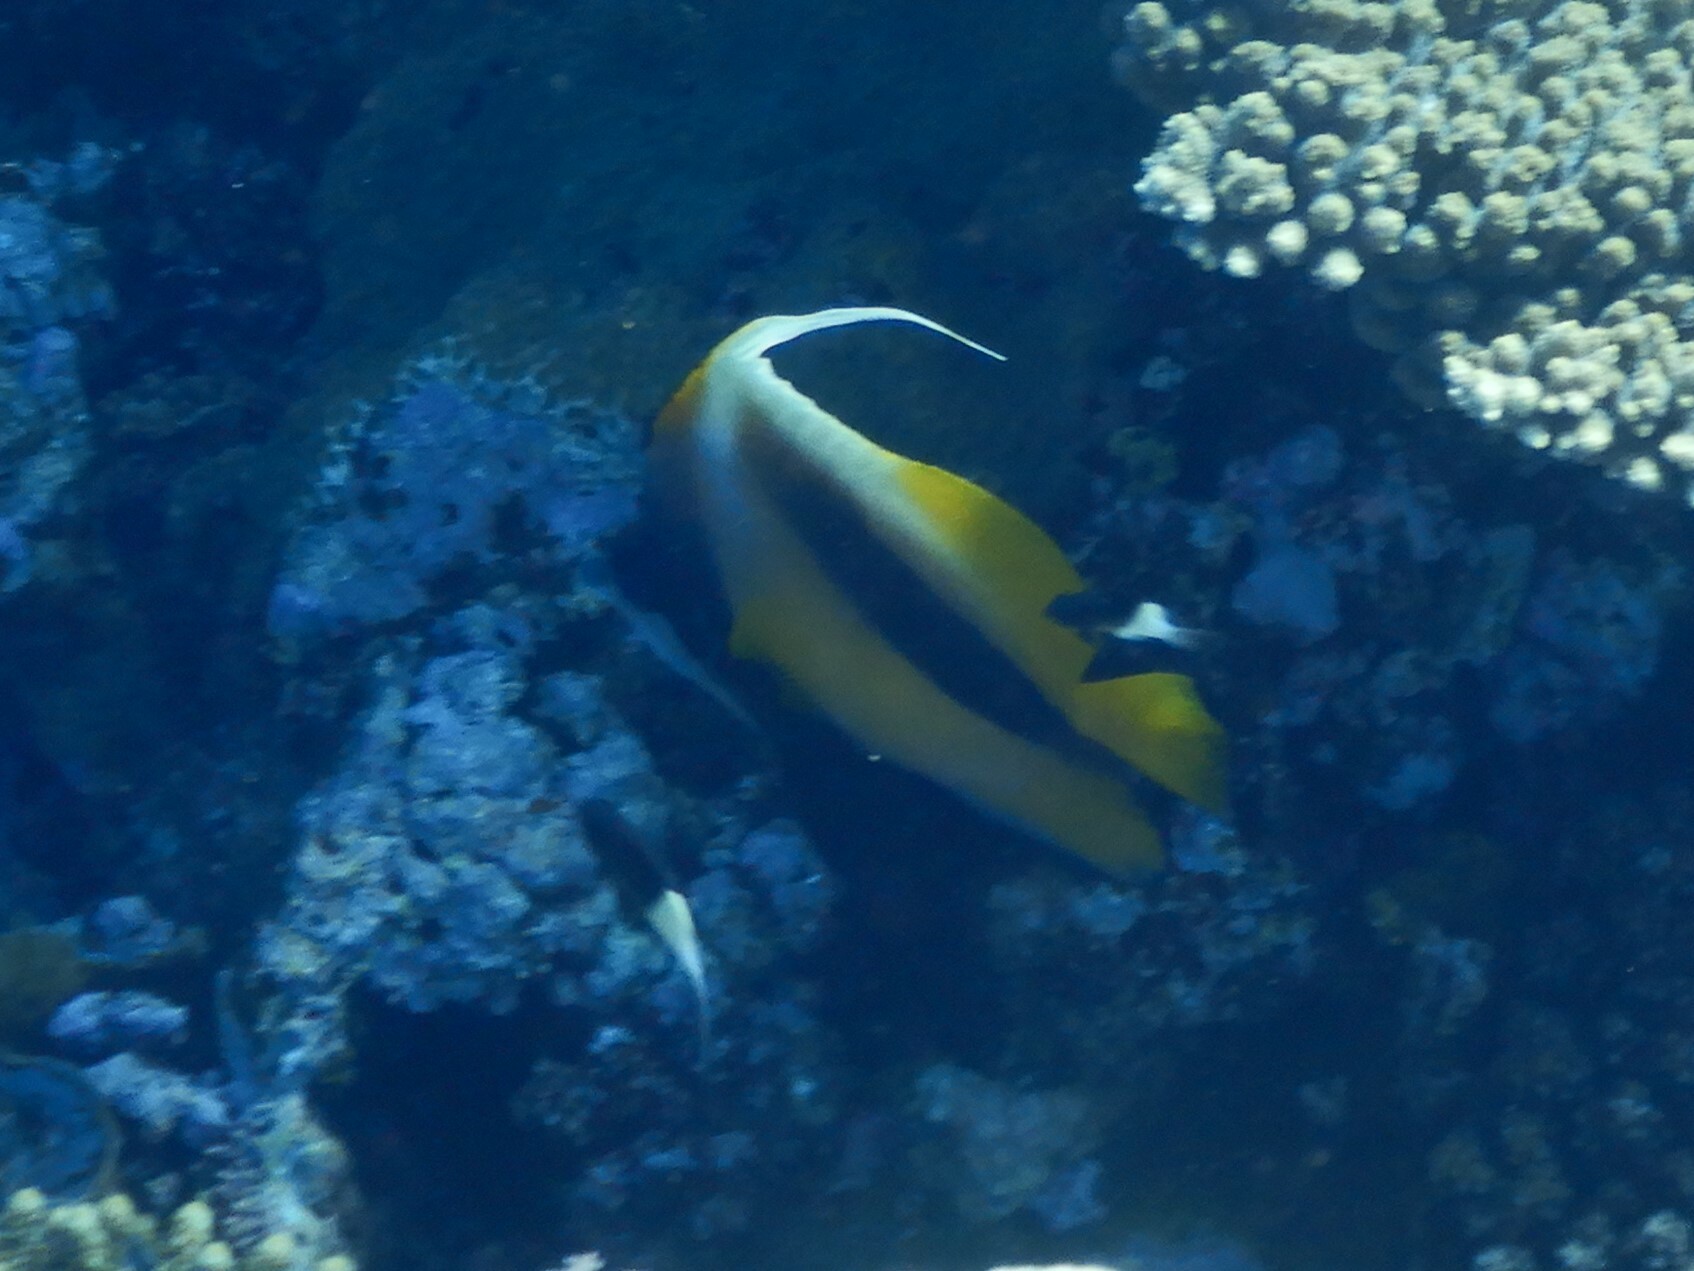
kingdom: Animalia
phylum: Chordata
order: Perciformes
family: Chaetodontidae
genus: Heniochus
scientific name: Heniochus intermedius
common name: Red sea bannerfish
